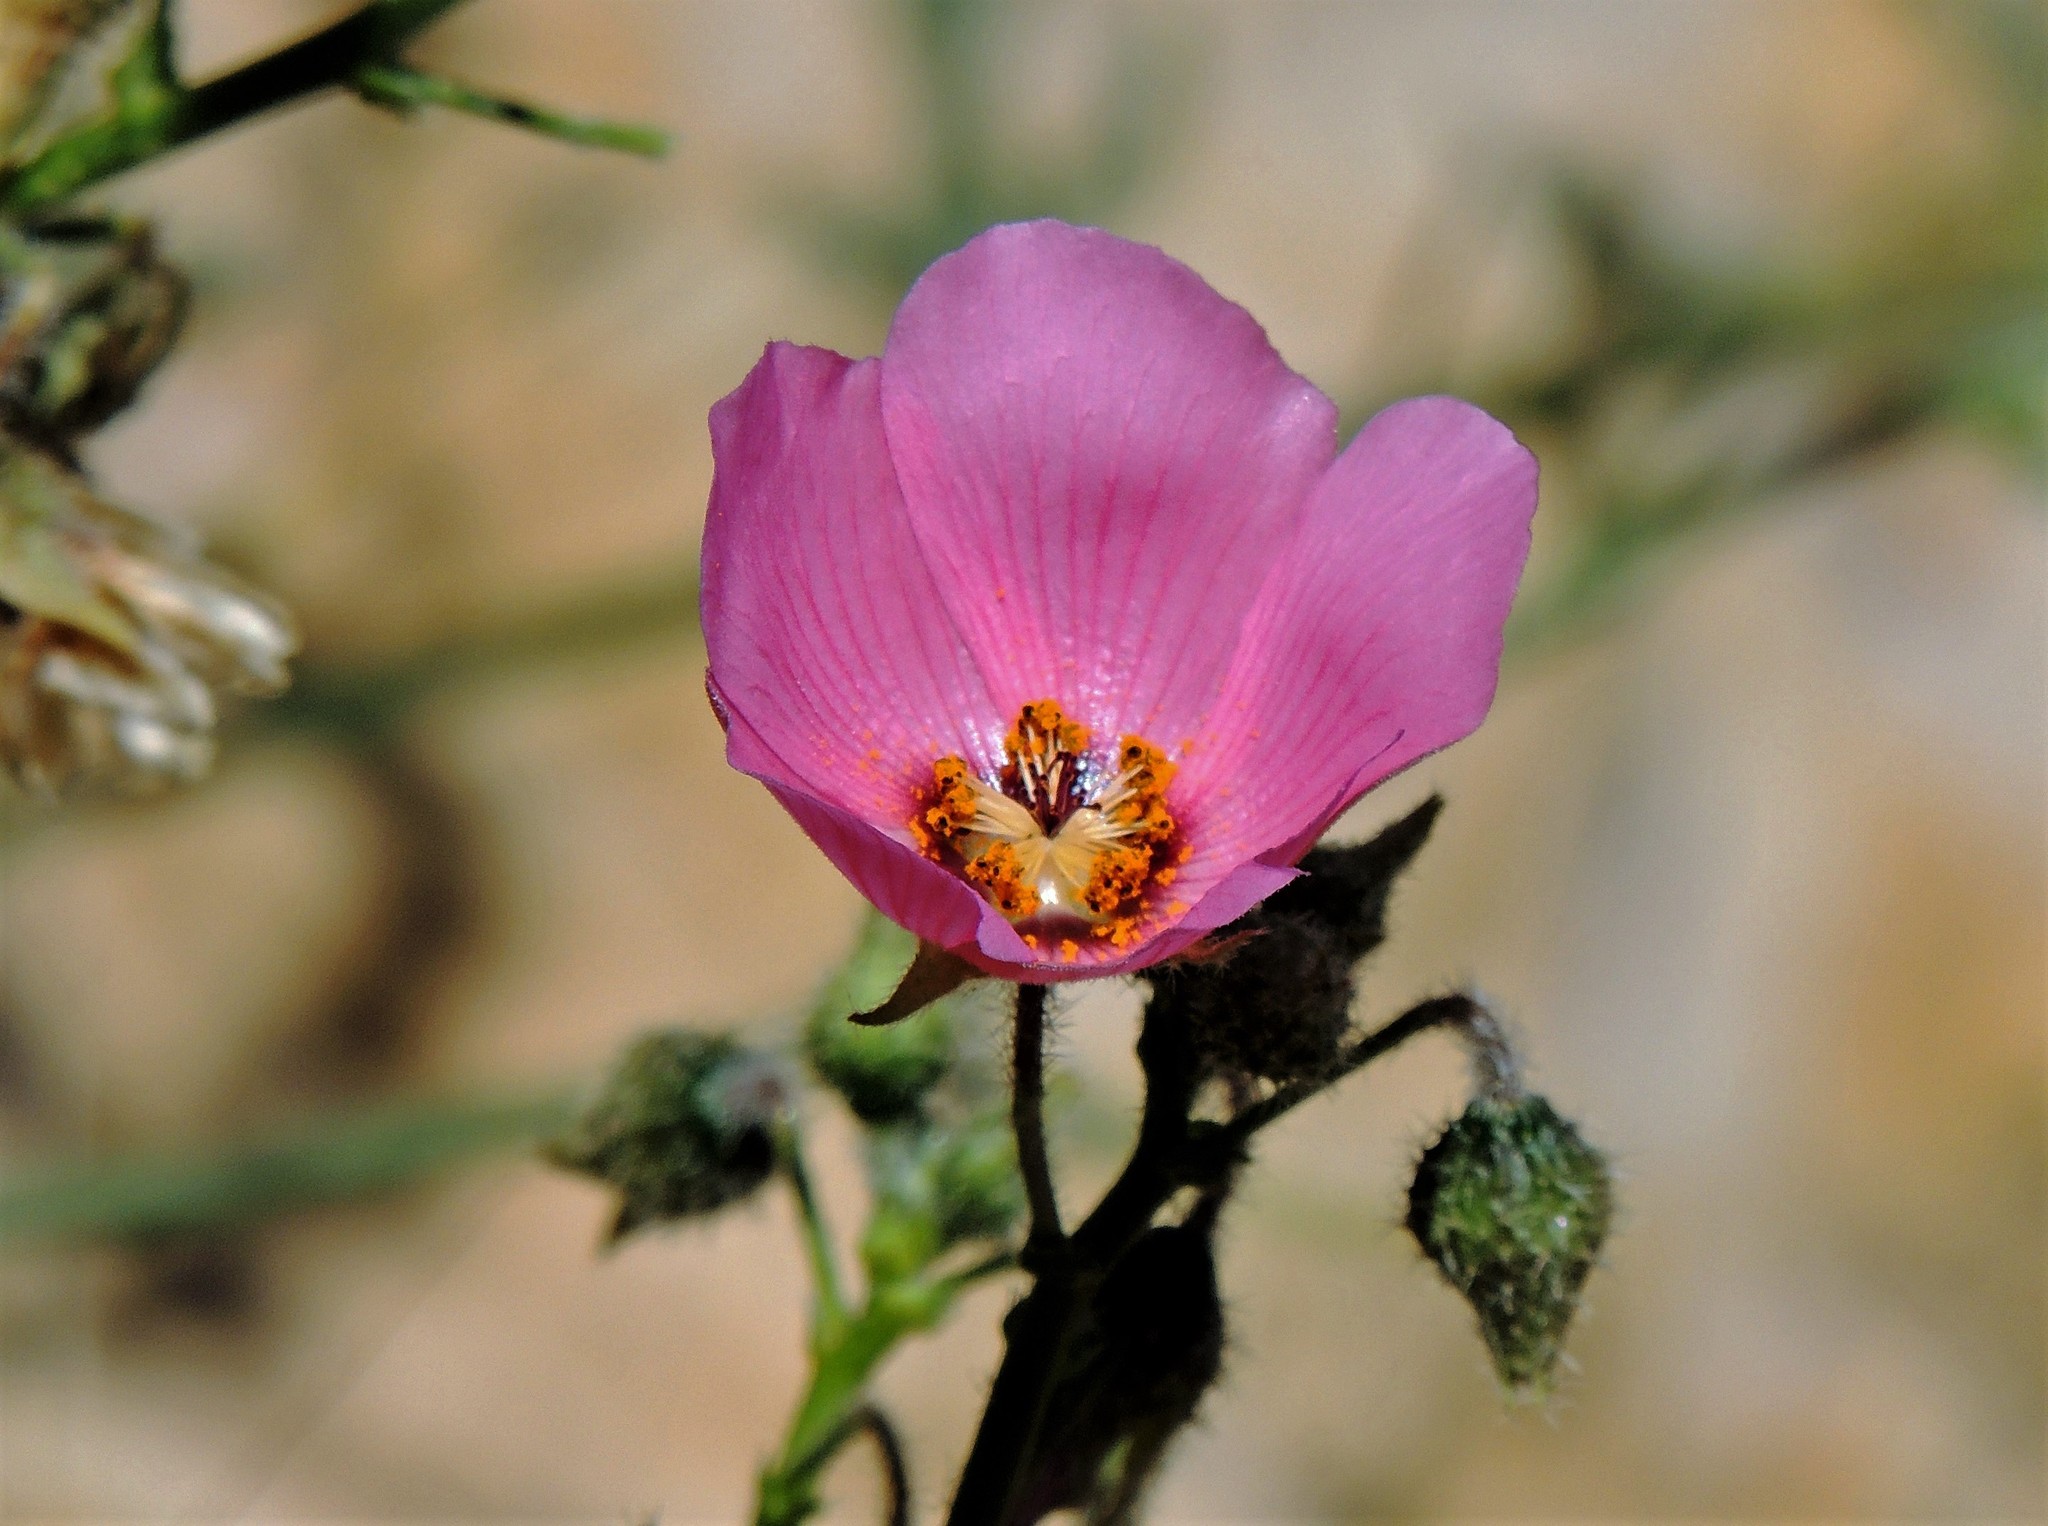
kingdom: Plantae
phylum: Tracheophyta
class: Magnoliopsida
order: Malvales
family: Malvaceae
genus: Lecanophora
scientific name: Lecanophora heterophylla
